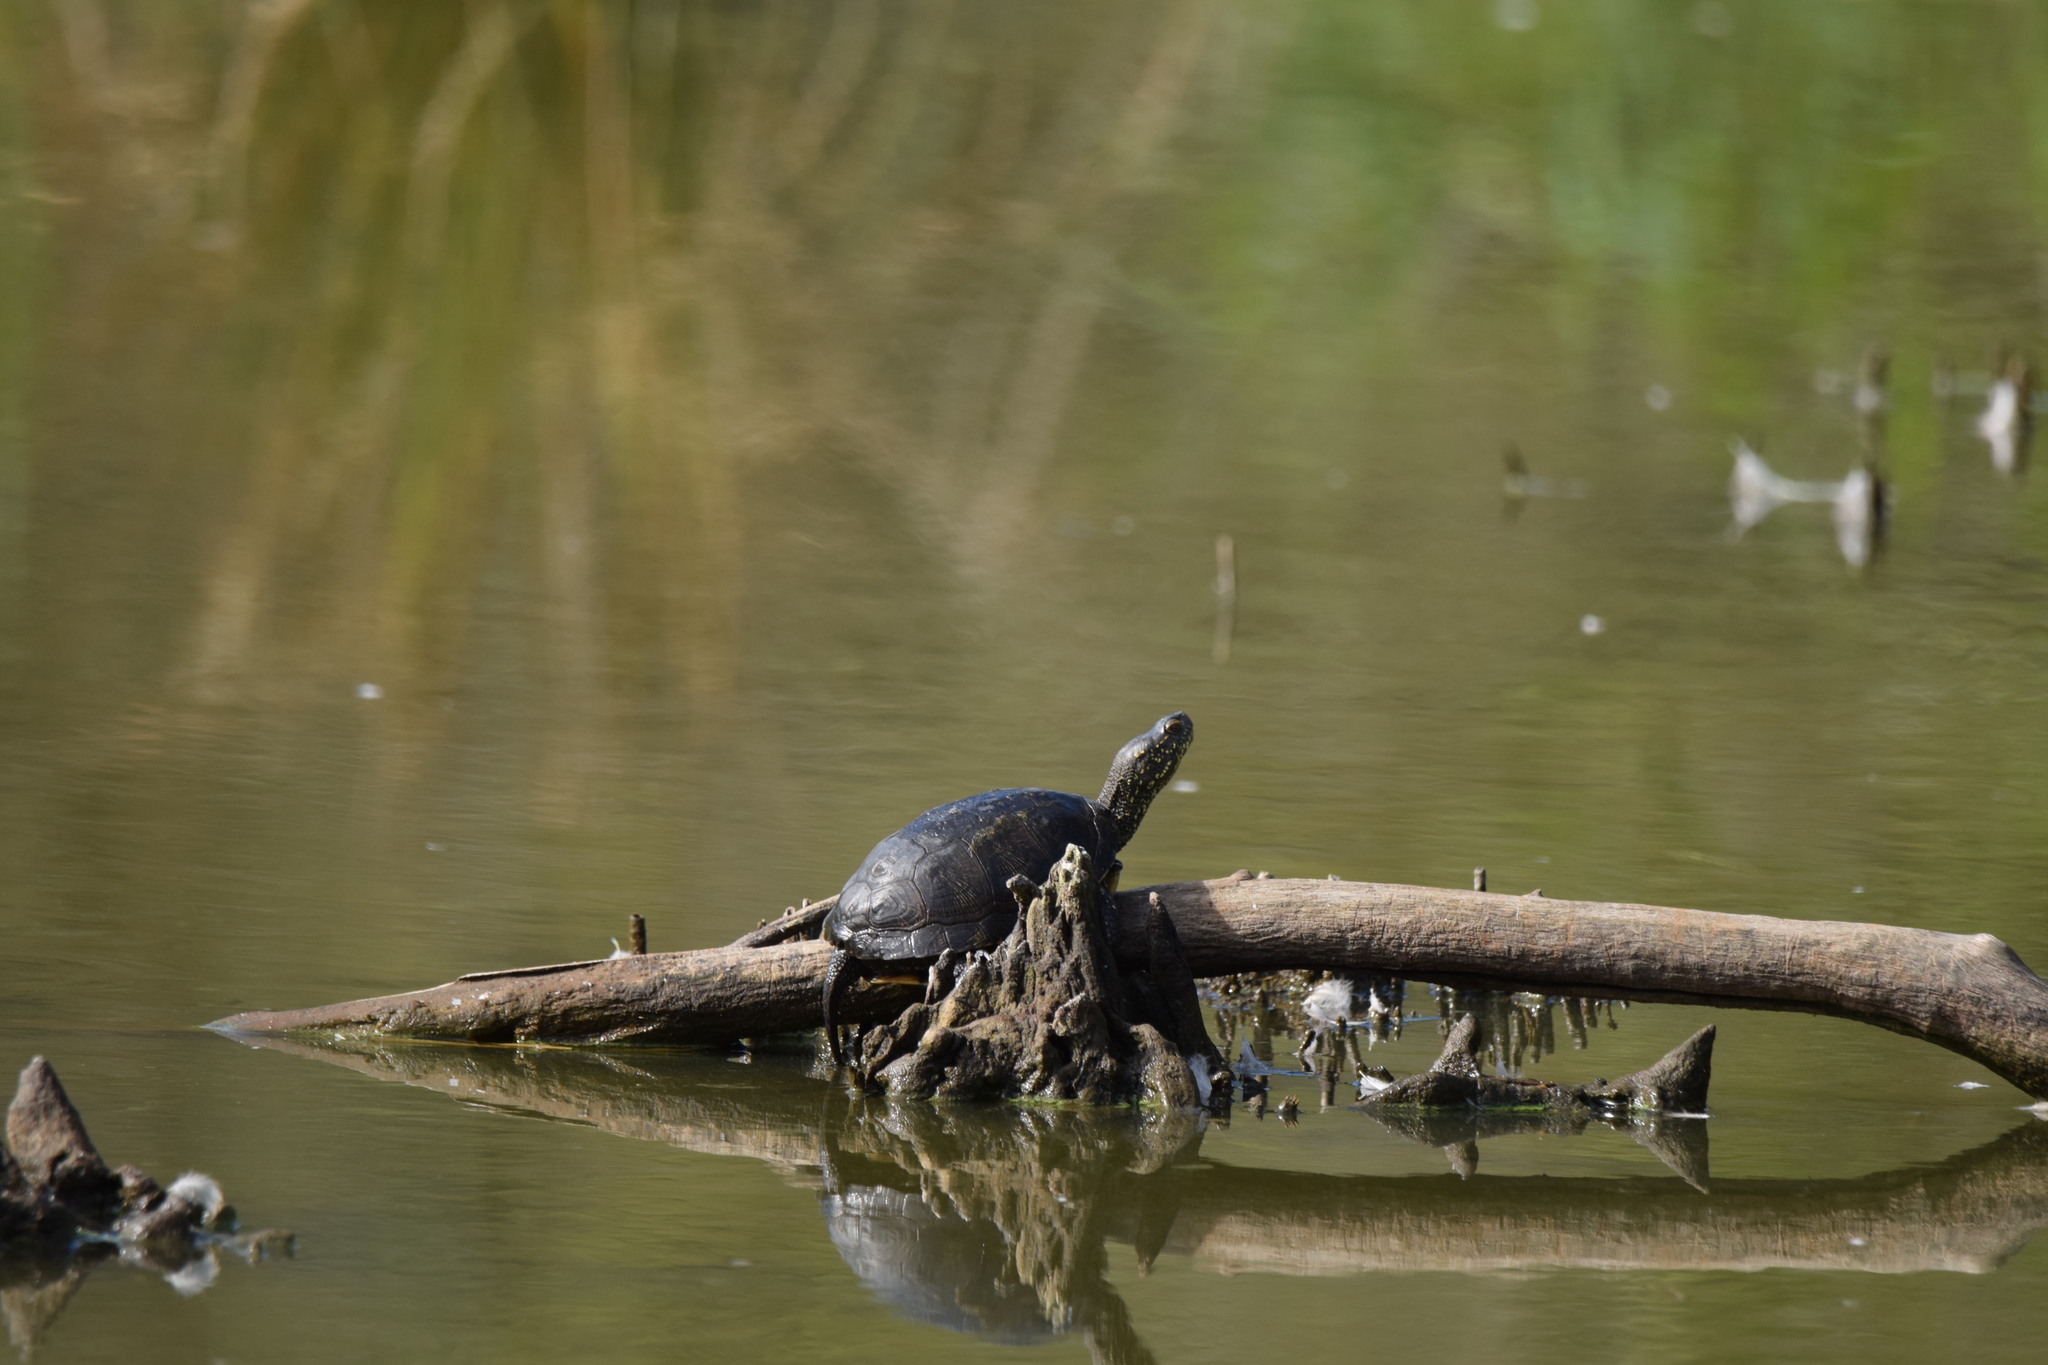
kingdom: Animalia
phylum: Chordata
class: Testudines
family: Emydidae
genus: Emys
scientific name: Emys orbicularis
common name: European pond turtle
